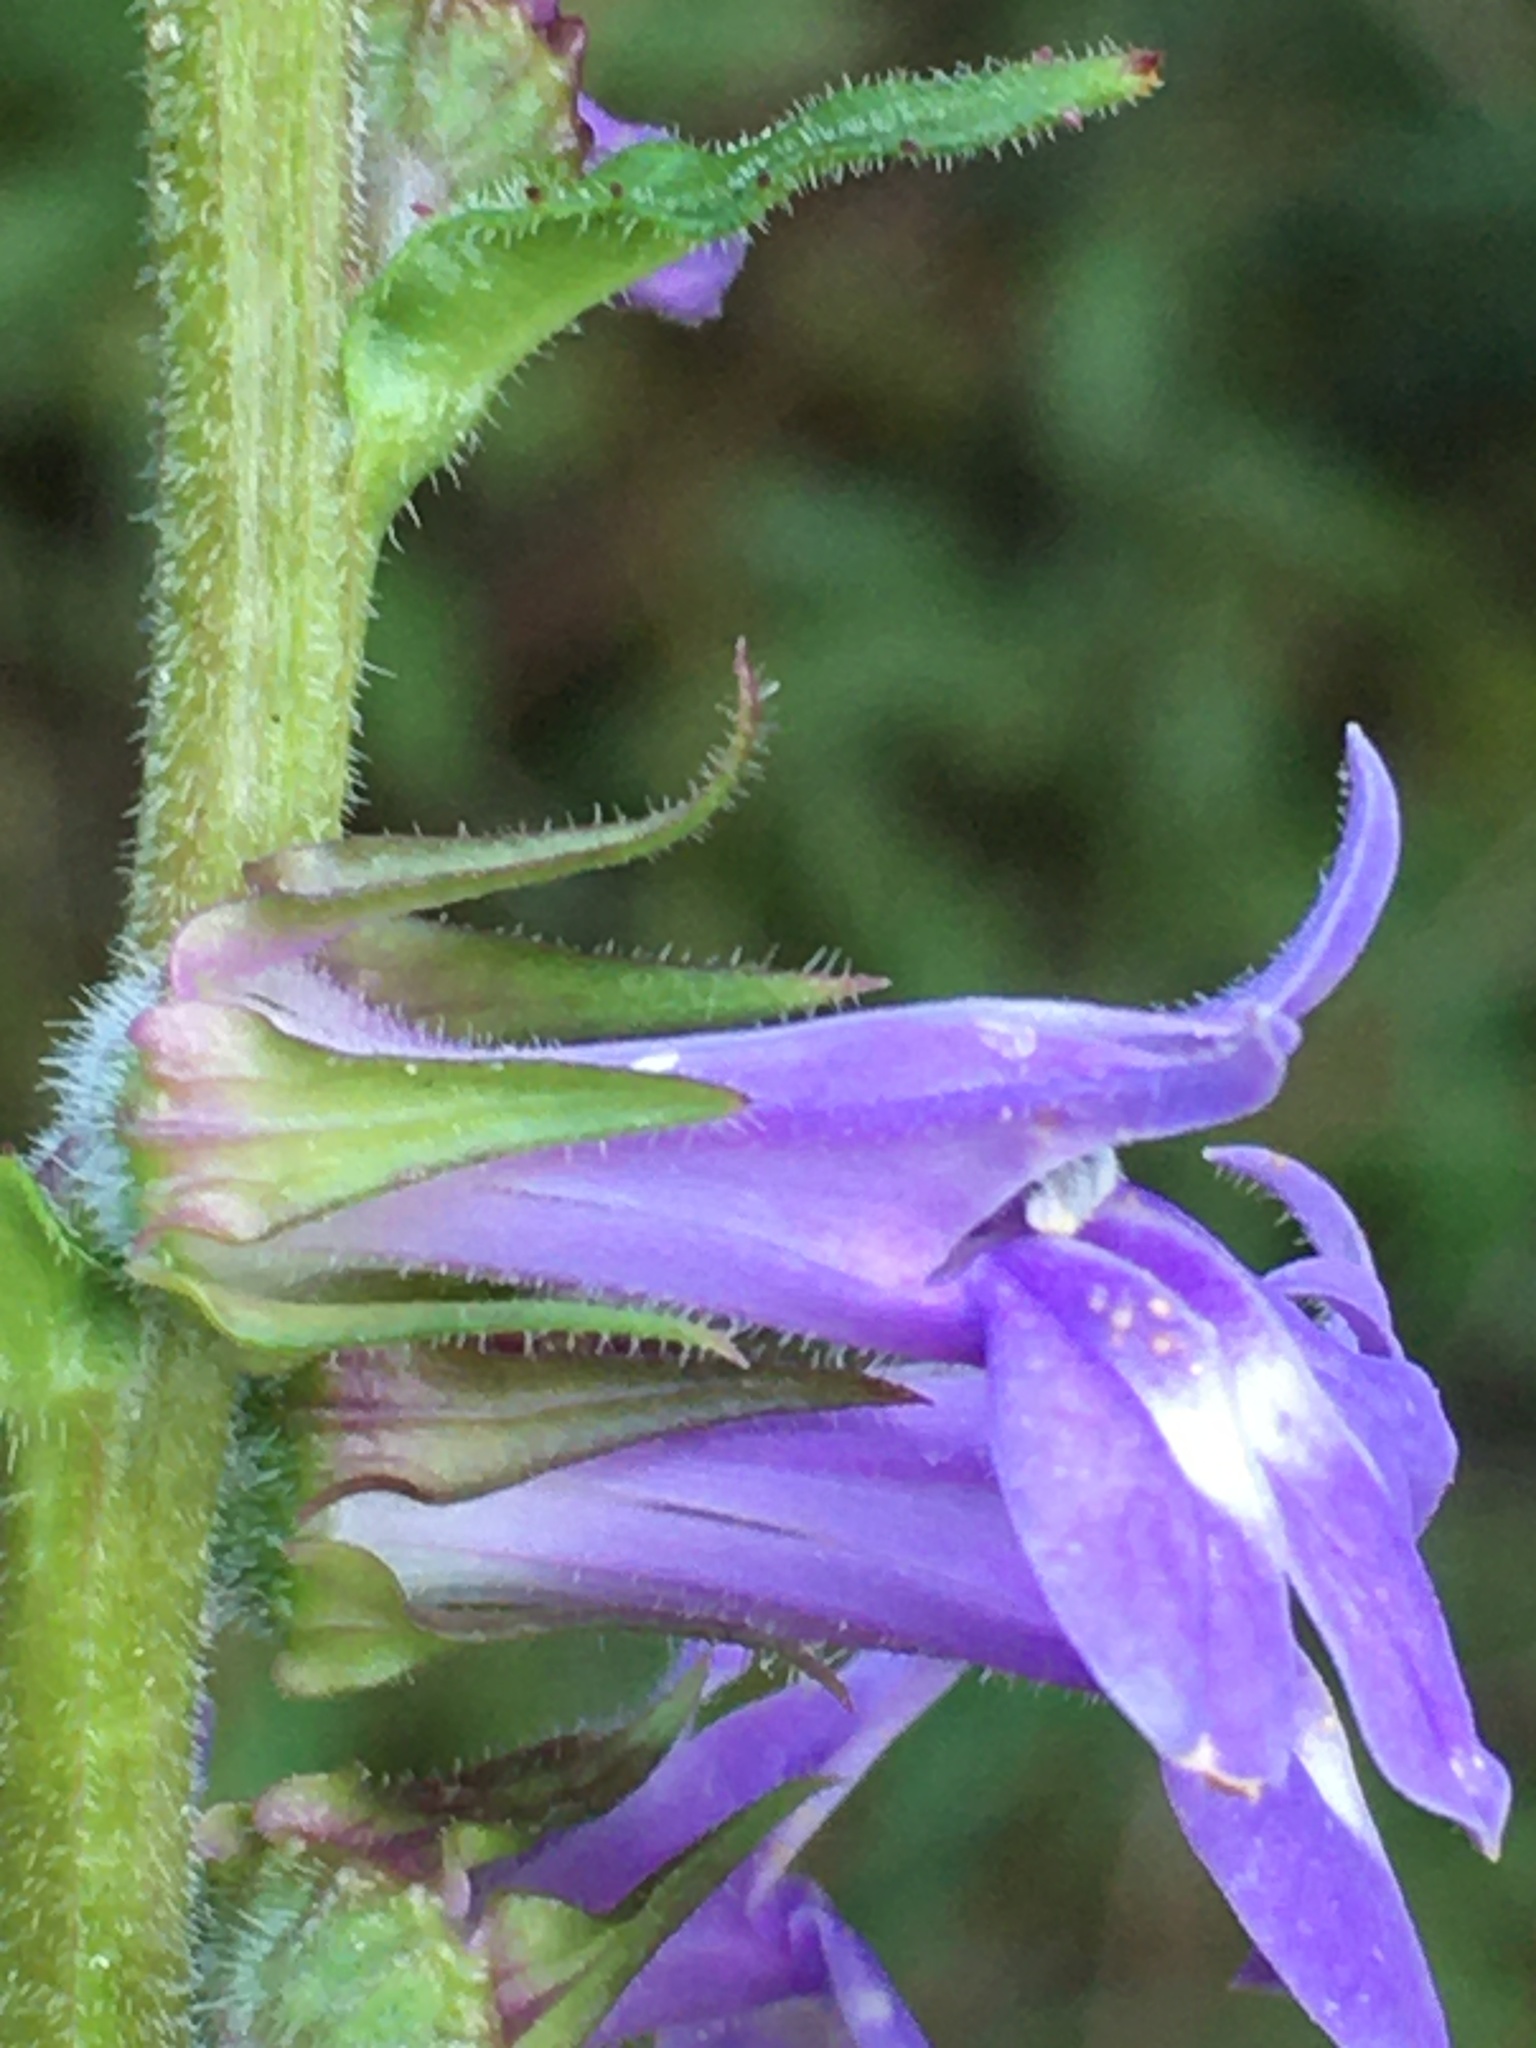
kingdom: Plantae
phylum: Tracheophyta
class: Magnoliopsida
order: Asterales
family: Campanulaceae
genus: Lobelia
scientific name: Lobelia puberula
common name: Purple dewdrop
